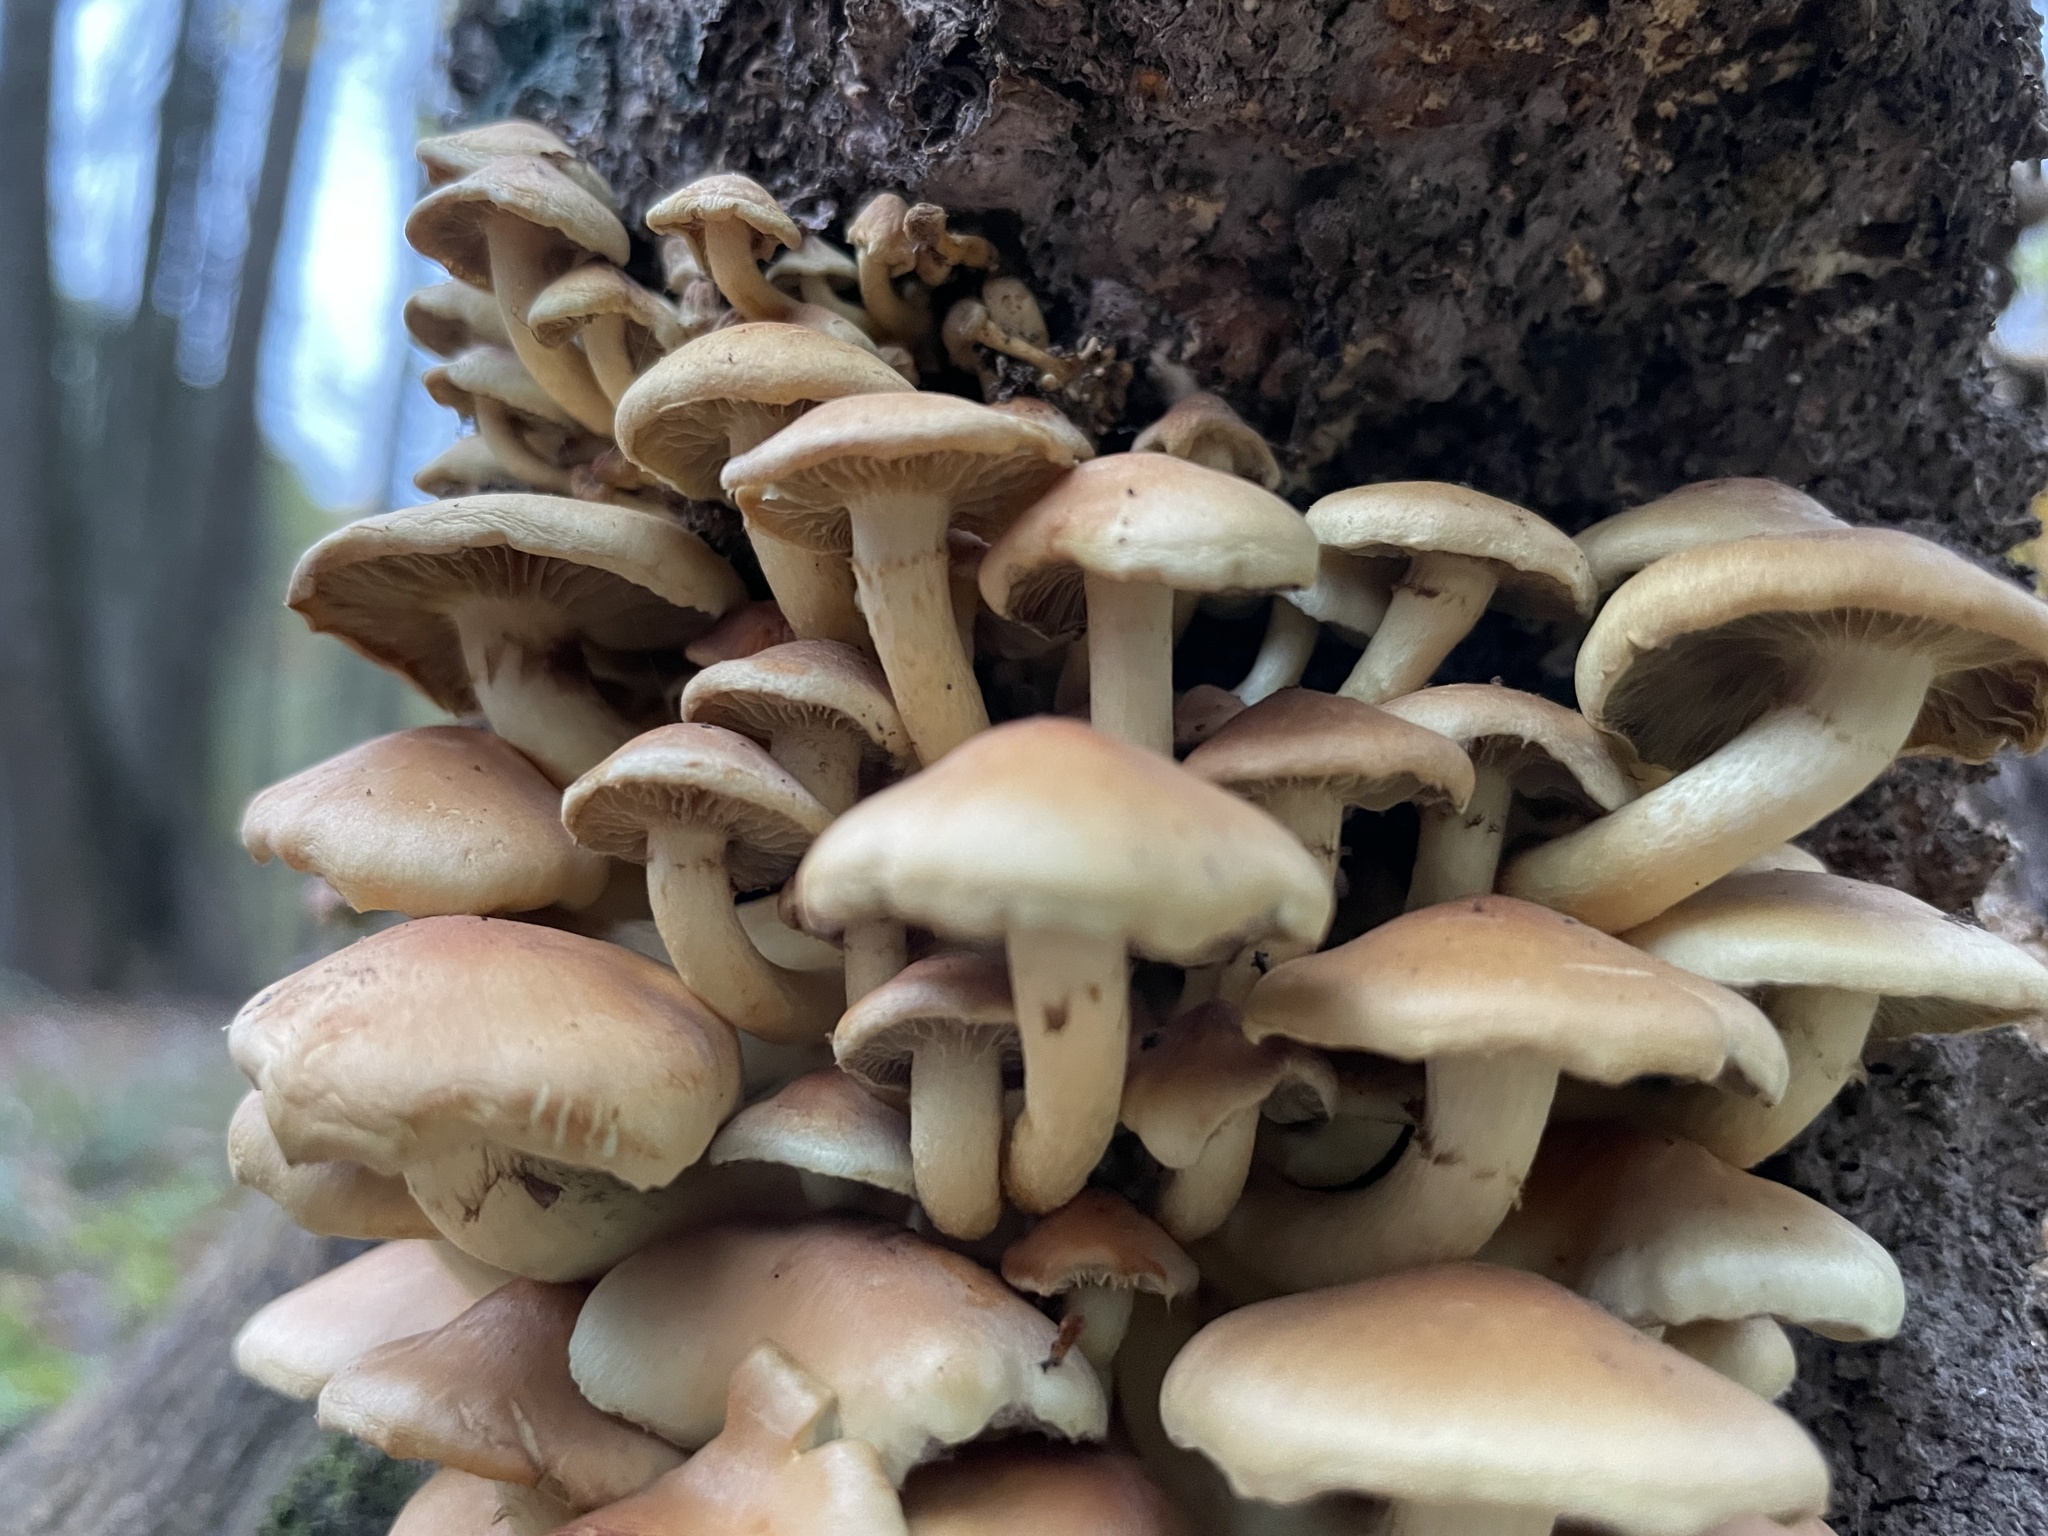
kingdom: Fungi
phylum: Basidiomycota
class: Agaricomycetes
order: Agaricales
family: Strophariaceae
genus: Hypholoma
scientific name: Hypholoma fasciculare
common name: Sulphur tuft
